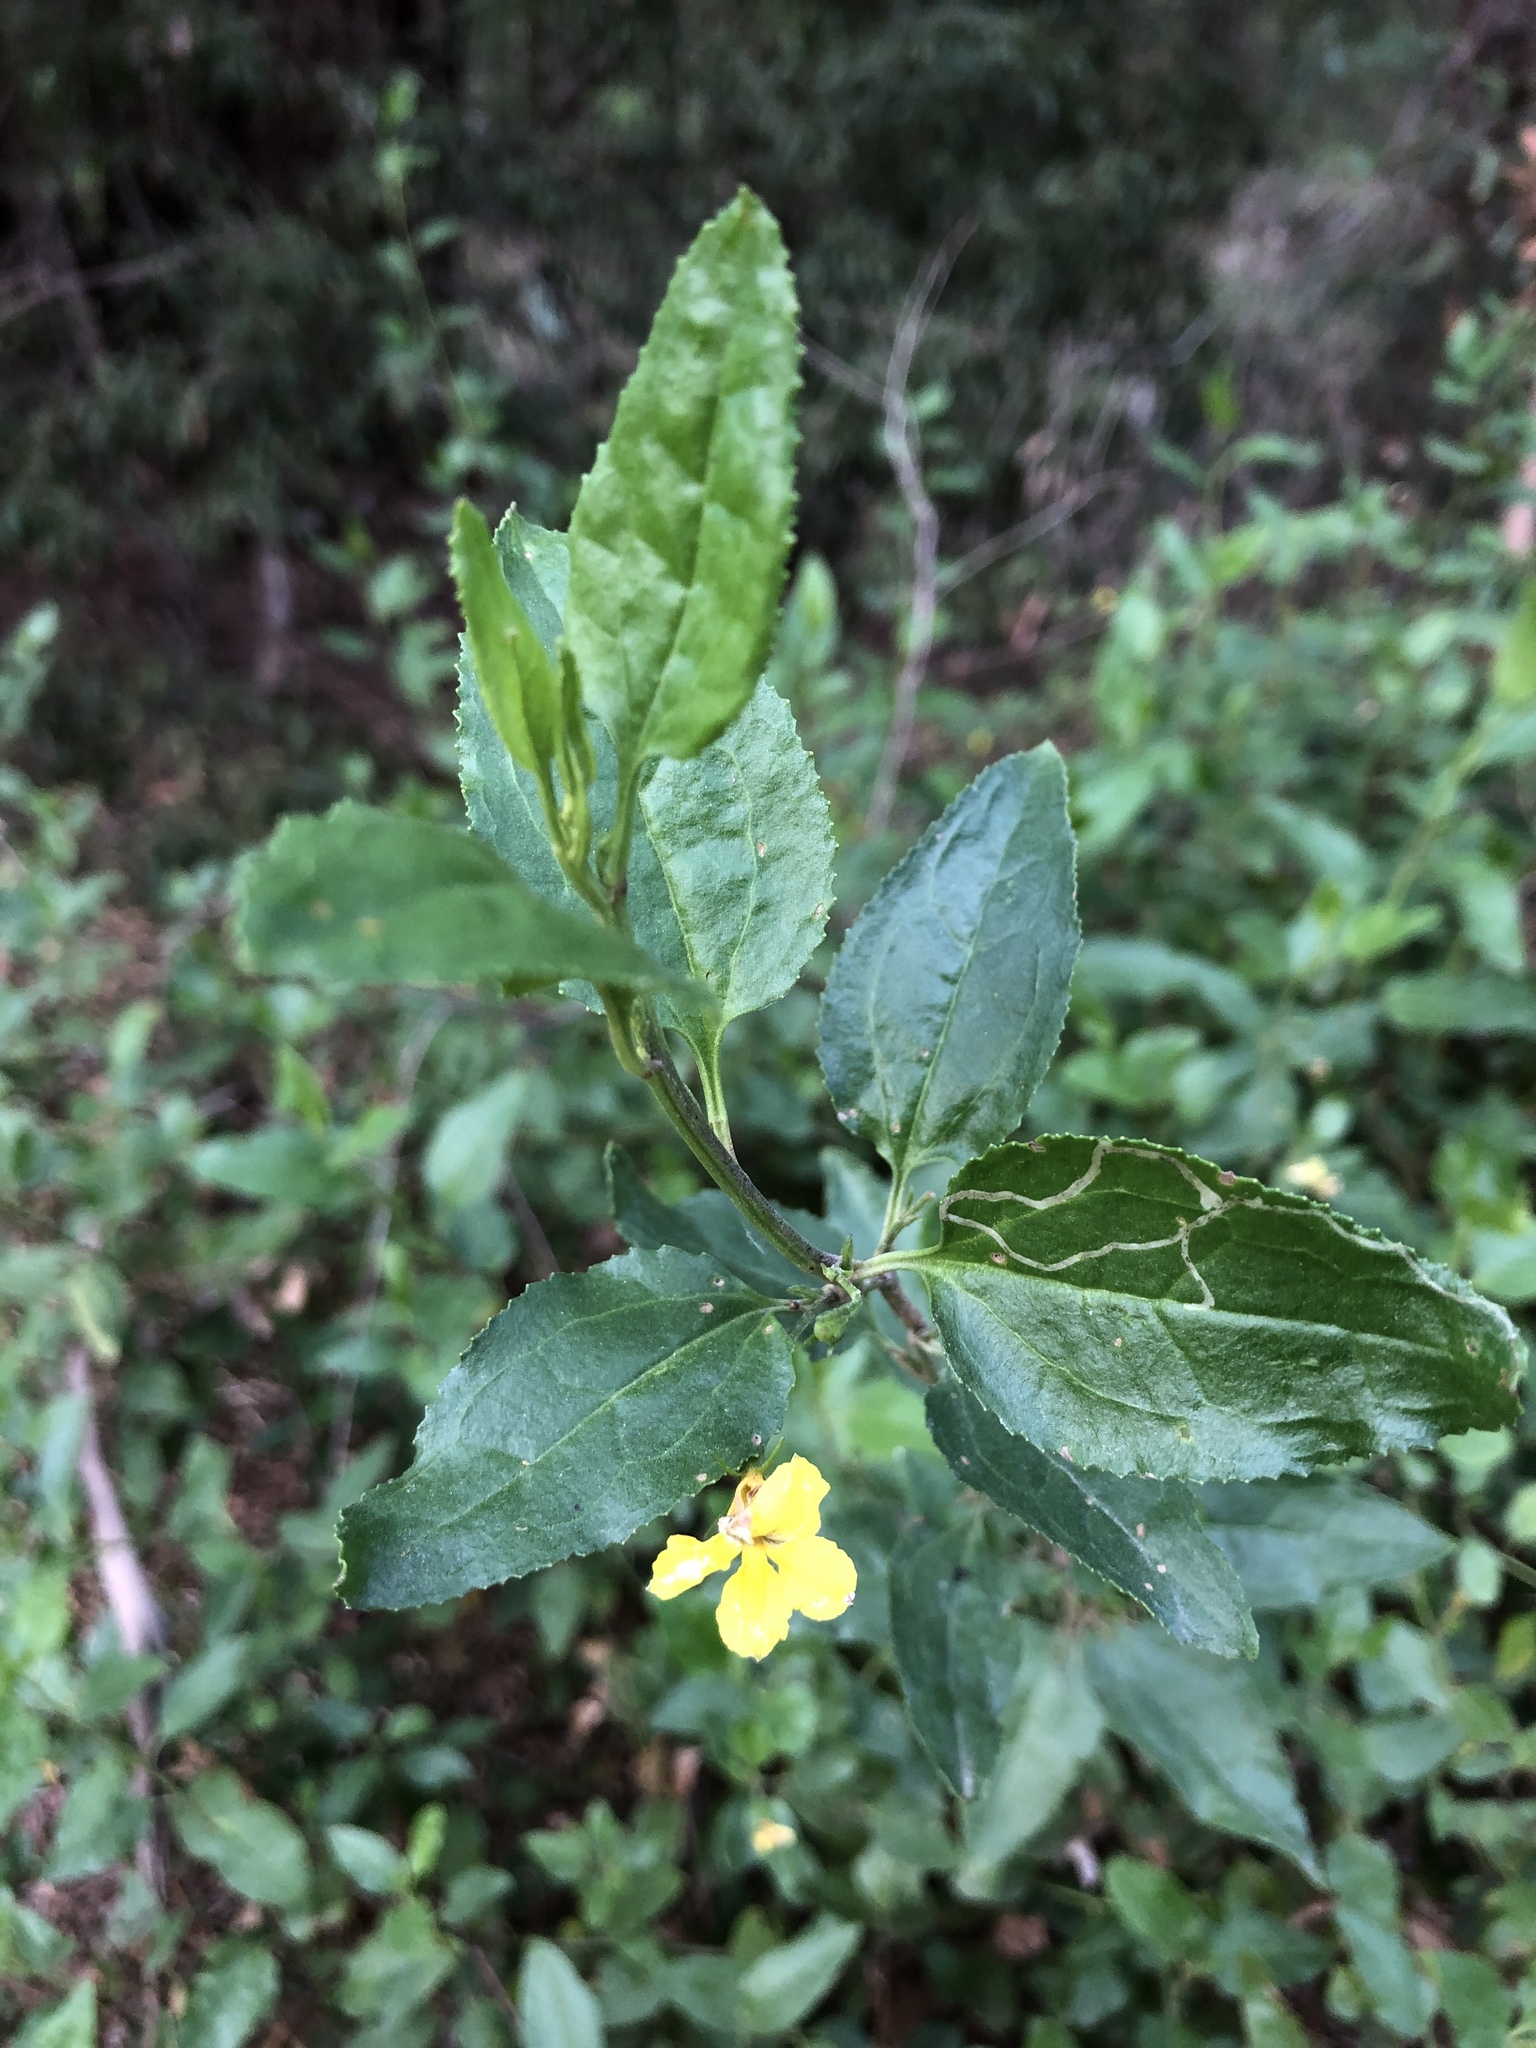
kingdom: Plantae
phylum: Tracheophyta
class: Magnoliopsida
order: Asterales
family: Goodeniaceae
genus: Goodenia
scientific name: Goodenia ovata
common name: Hop goodenia
